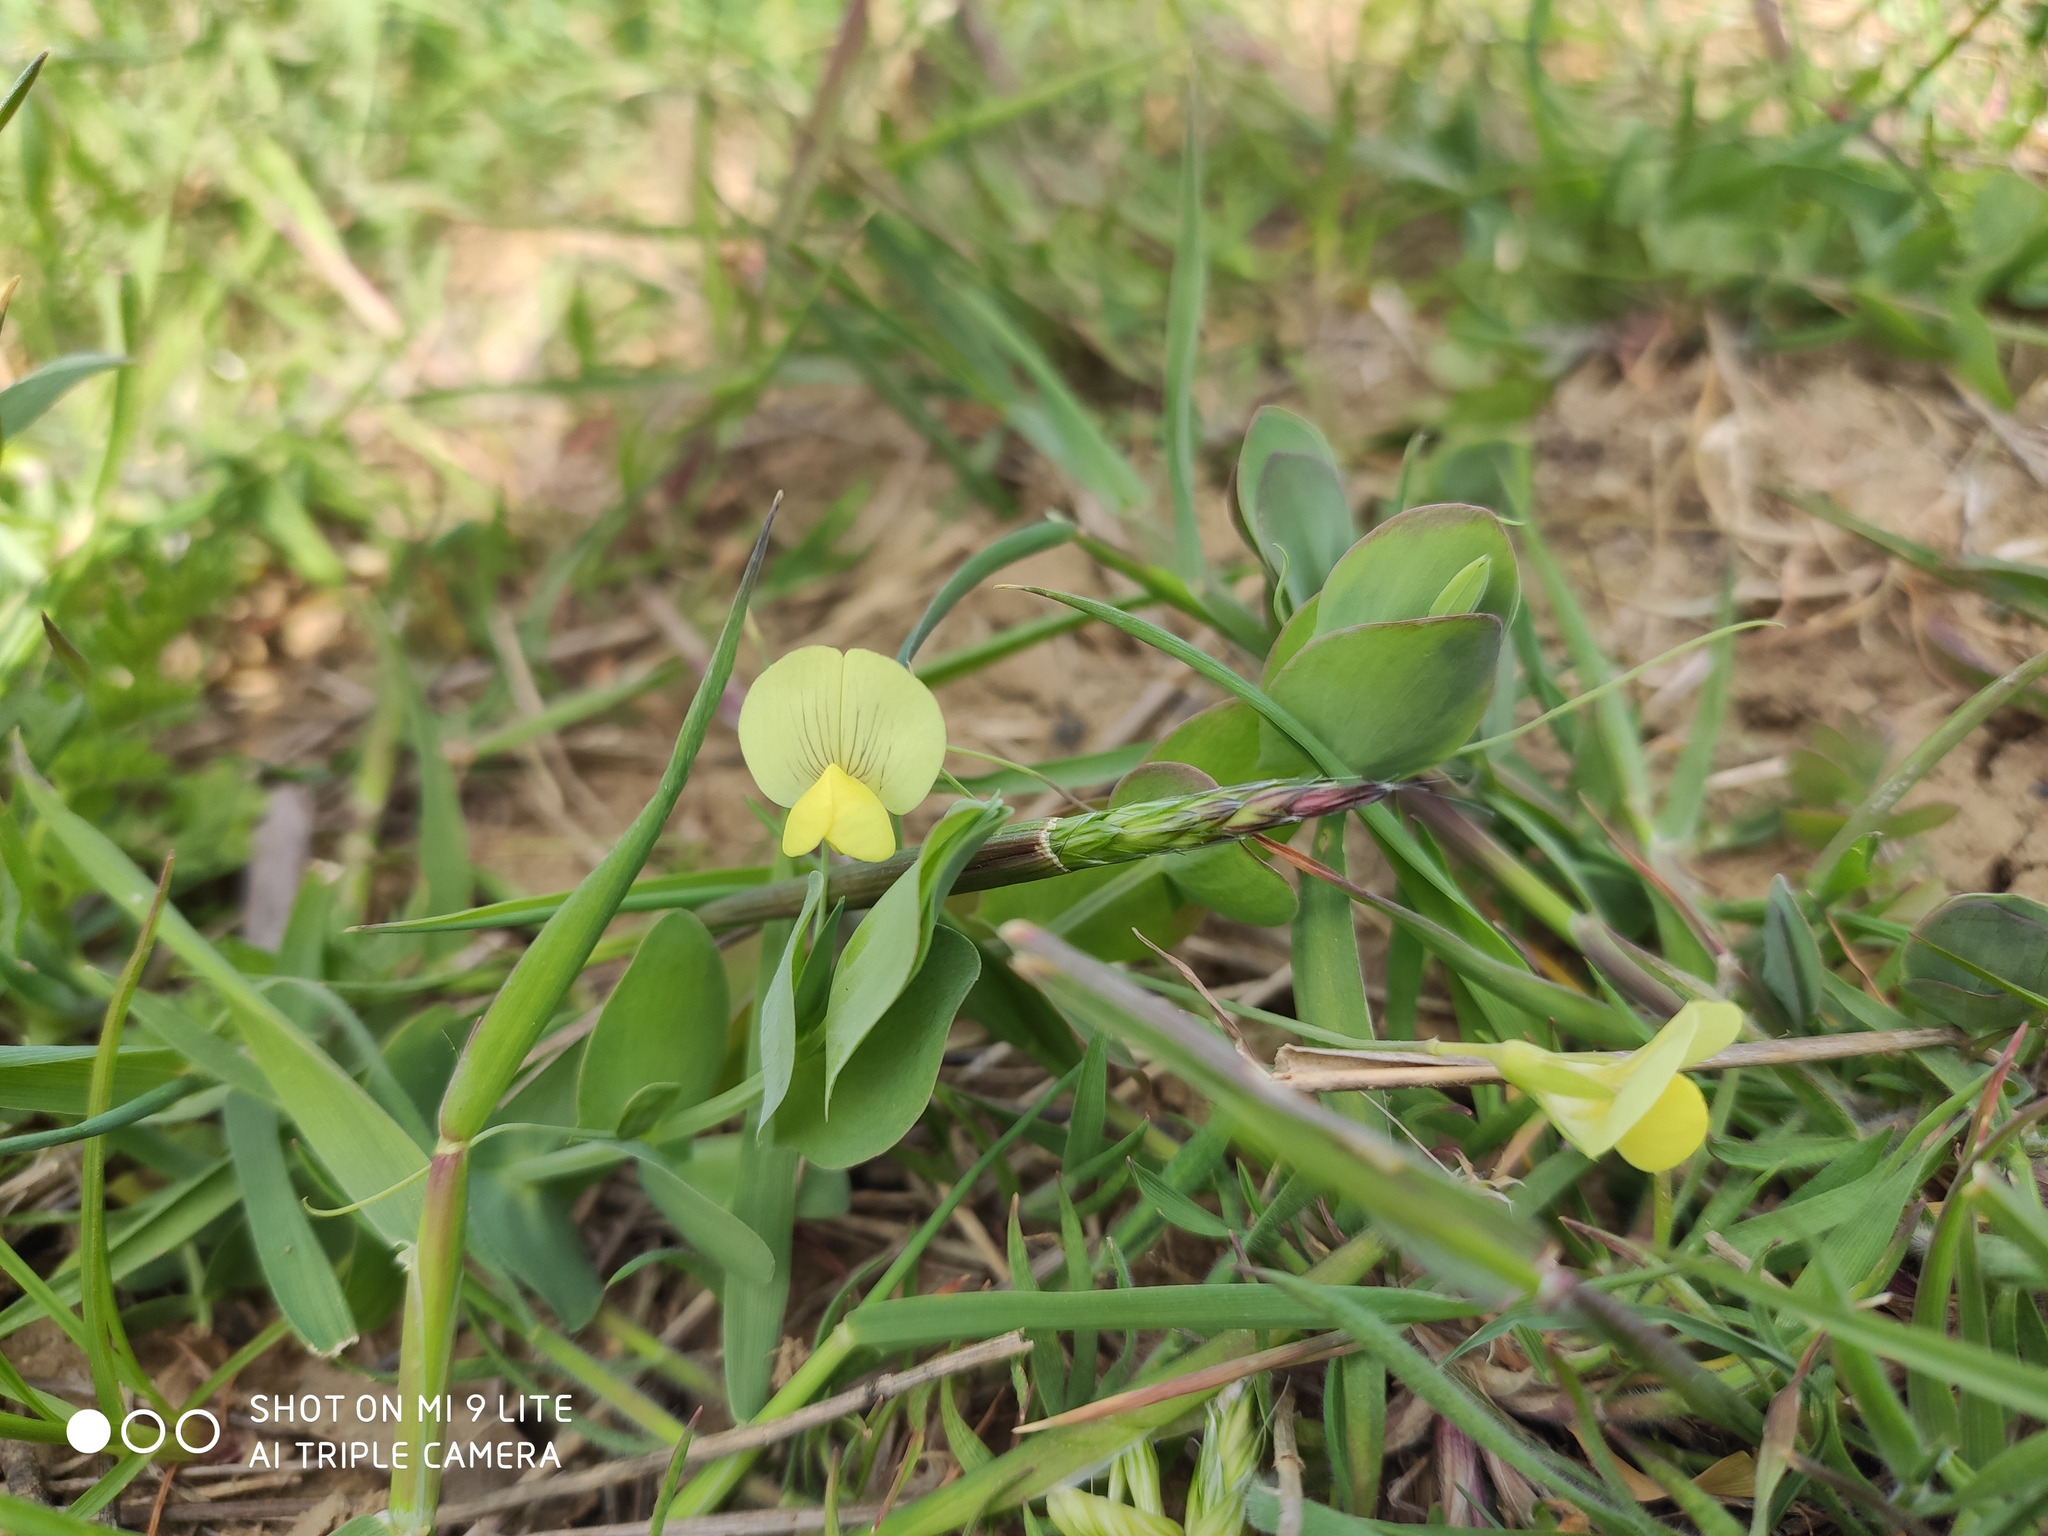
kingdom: Plantae
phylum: Tracheophyta
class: Magnoliopsida
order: Fabales
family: Fabaceae
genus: Lathyrus
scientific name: Lathyrus aphaca
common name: Yellow vetchling
